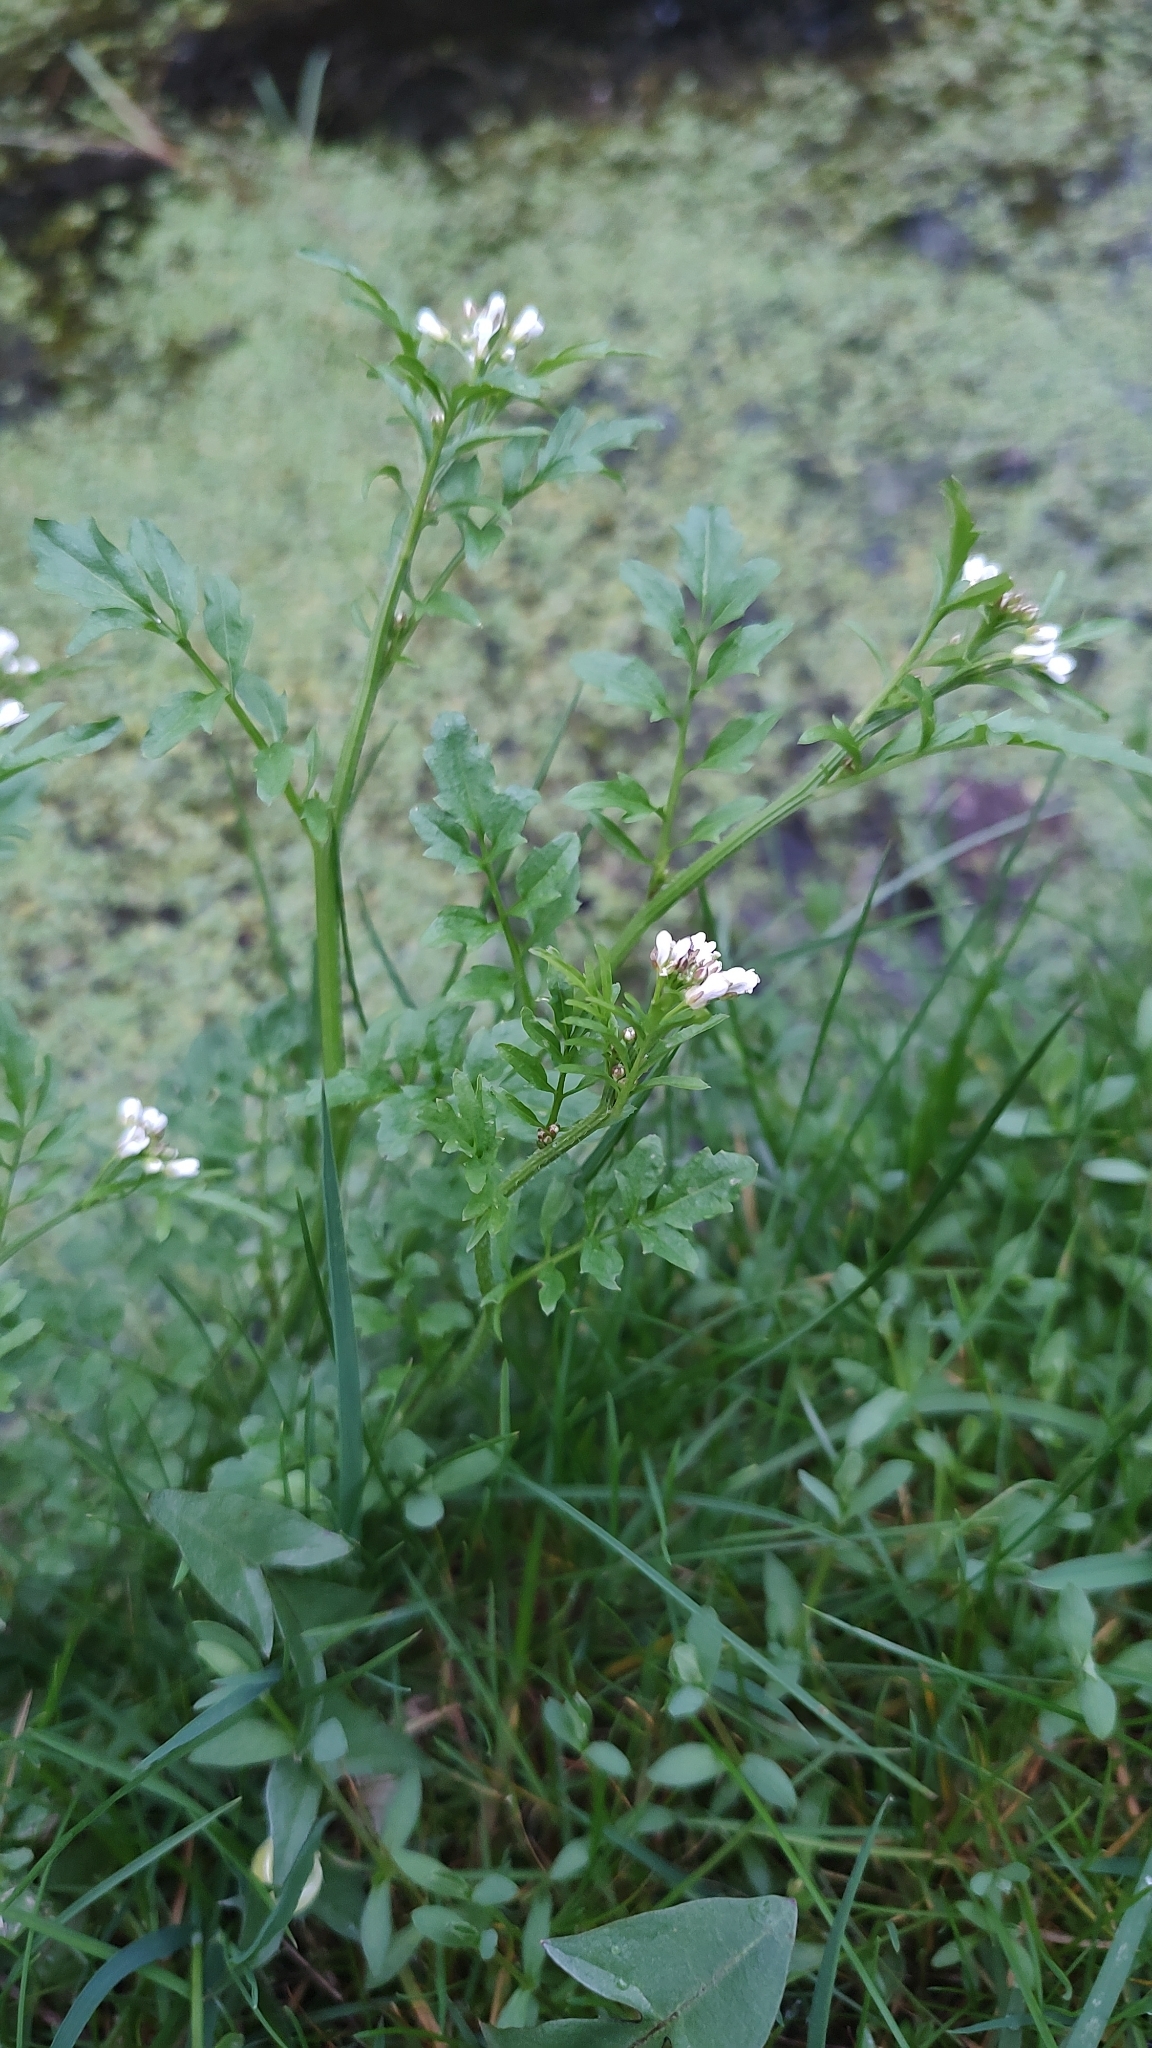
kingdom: Plantae
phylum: Tracheophyta
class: Magnoliopsida
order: Brassicales
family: Brassicaceae
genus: Cardamine
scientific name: Cardamine flexuosa
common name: Woodland bittercress
